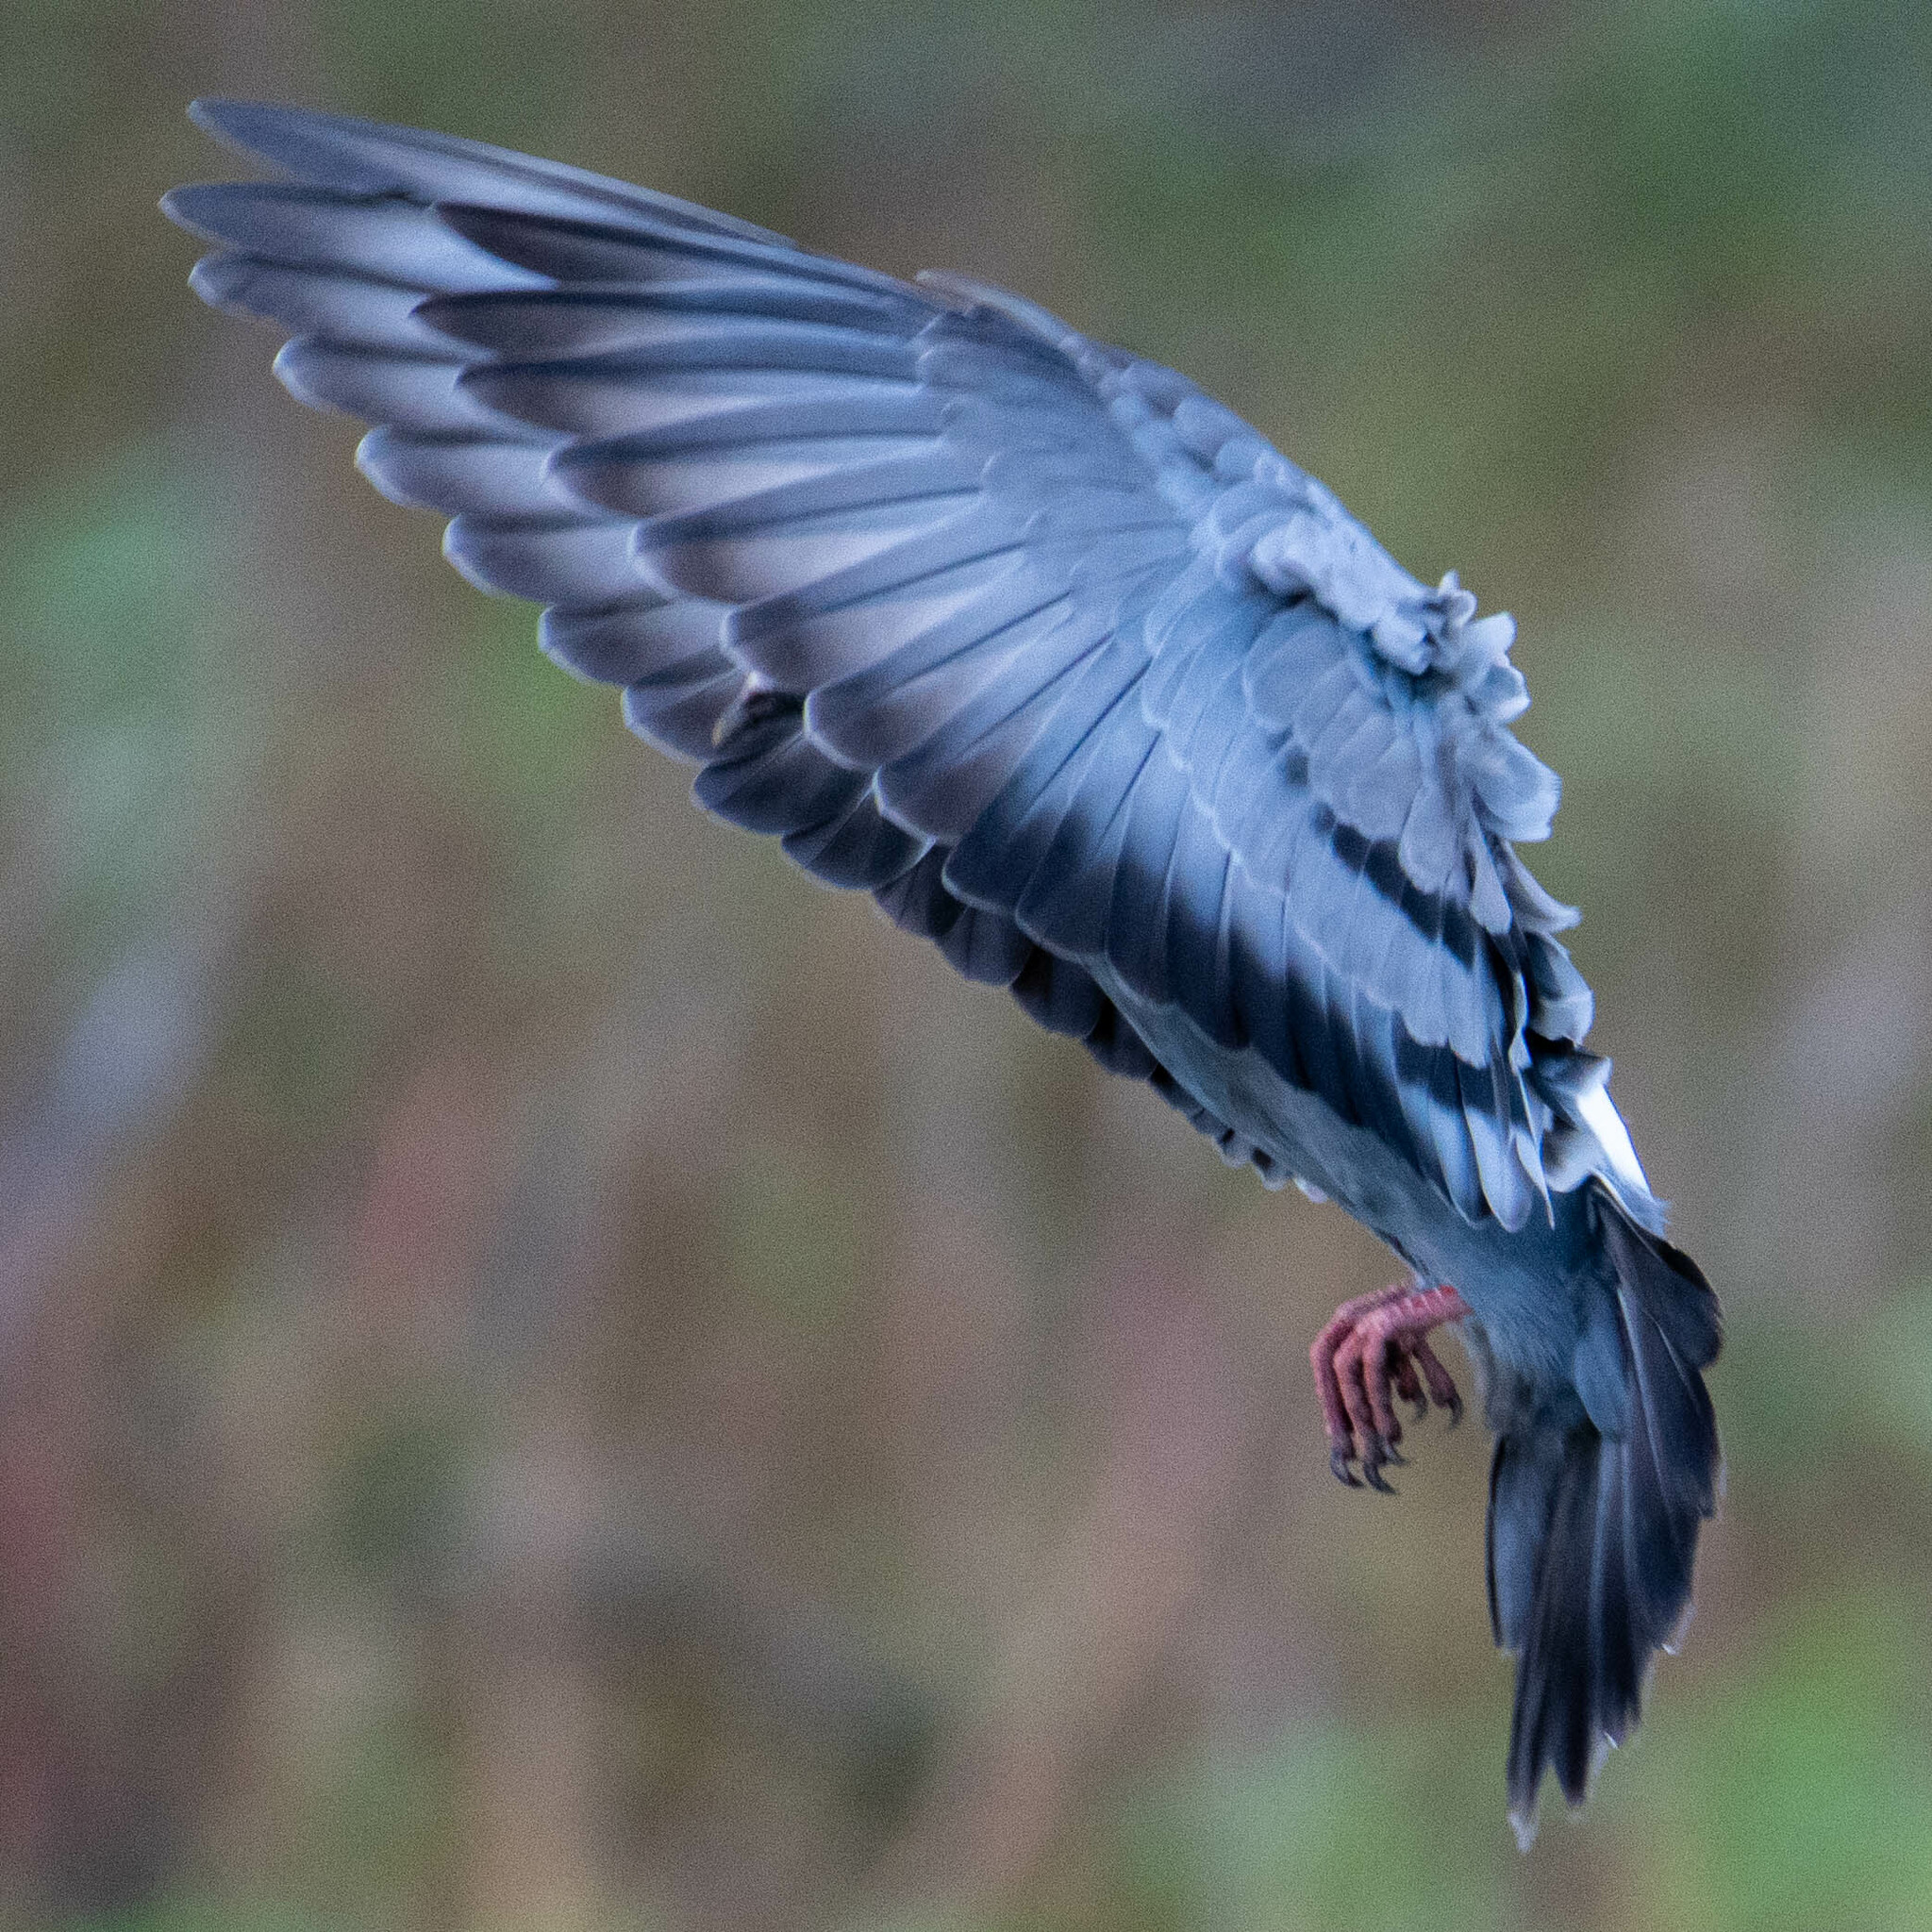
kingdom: Animalia
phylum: Chordata
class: Aves
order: Columbiformes
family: Columbidae
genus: Columba
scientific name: Columba livia
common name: Rock pigeon
